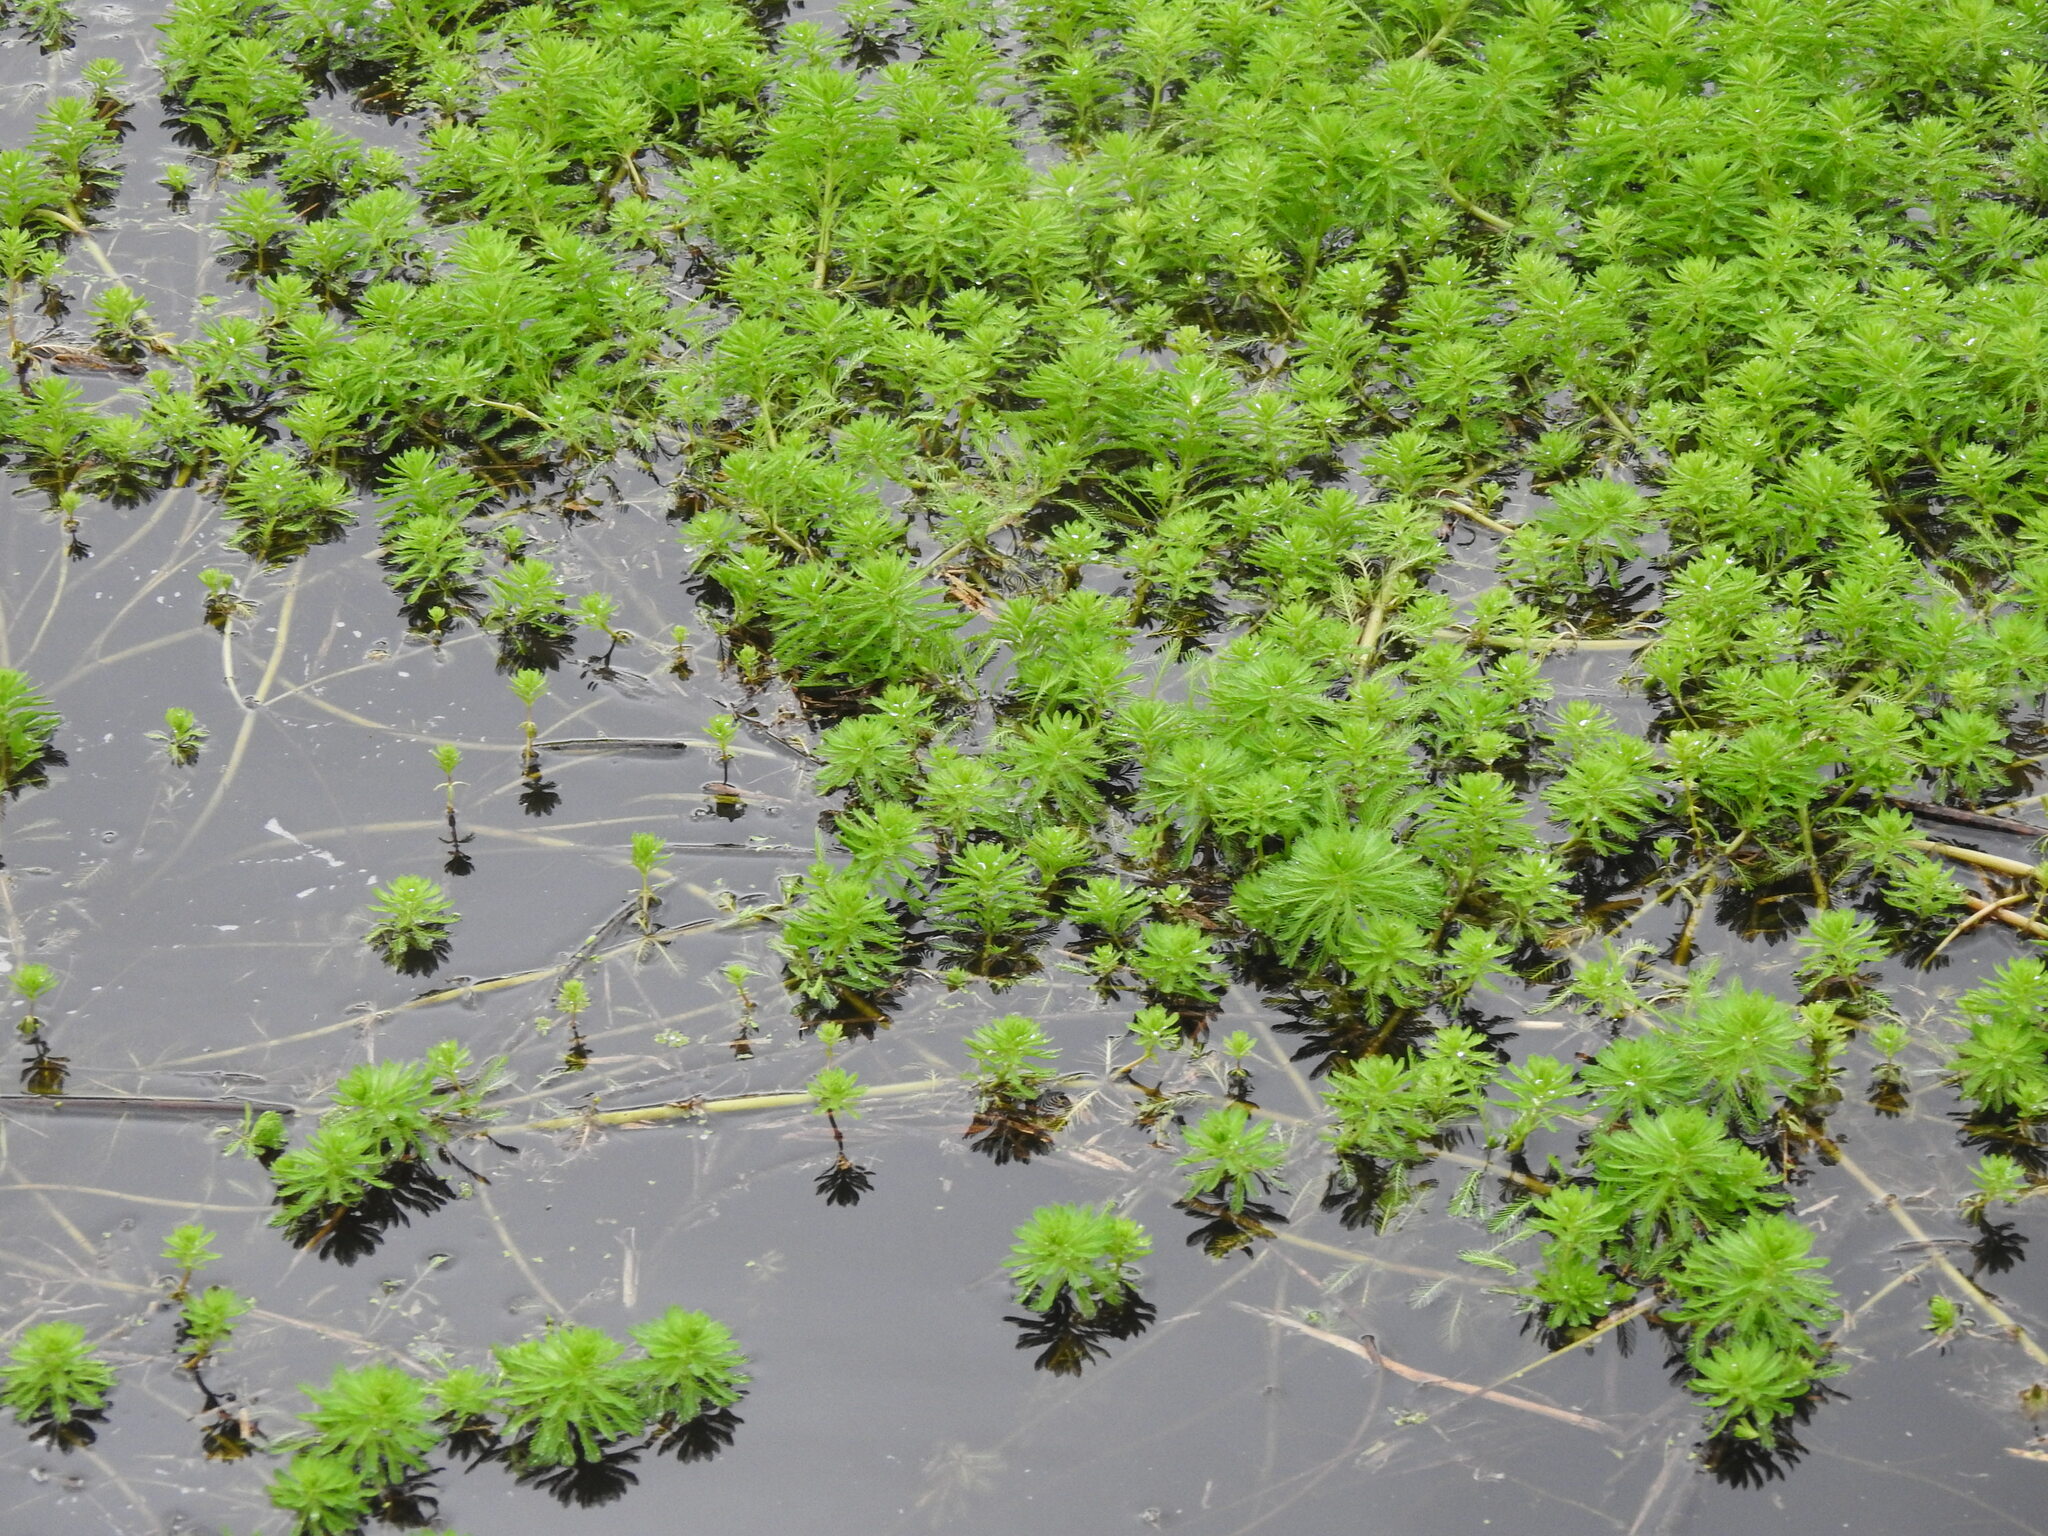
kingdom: Plantae
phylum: Tracheophyta
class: Magnoliopsida
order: Saxifragales
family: Haloragaceae
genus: Myriophyllum
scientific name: Myriophyllum aquaticum
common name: Parrot's feather
